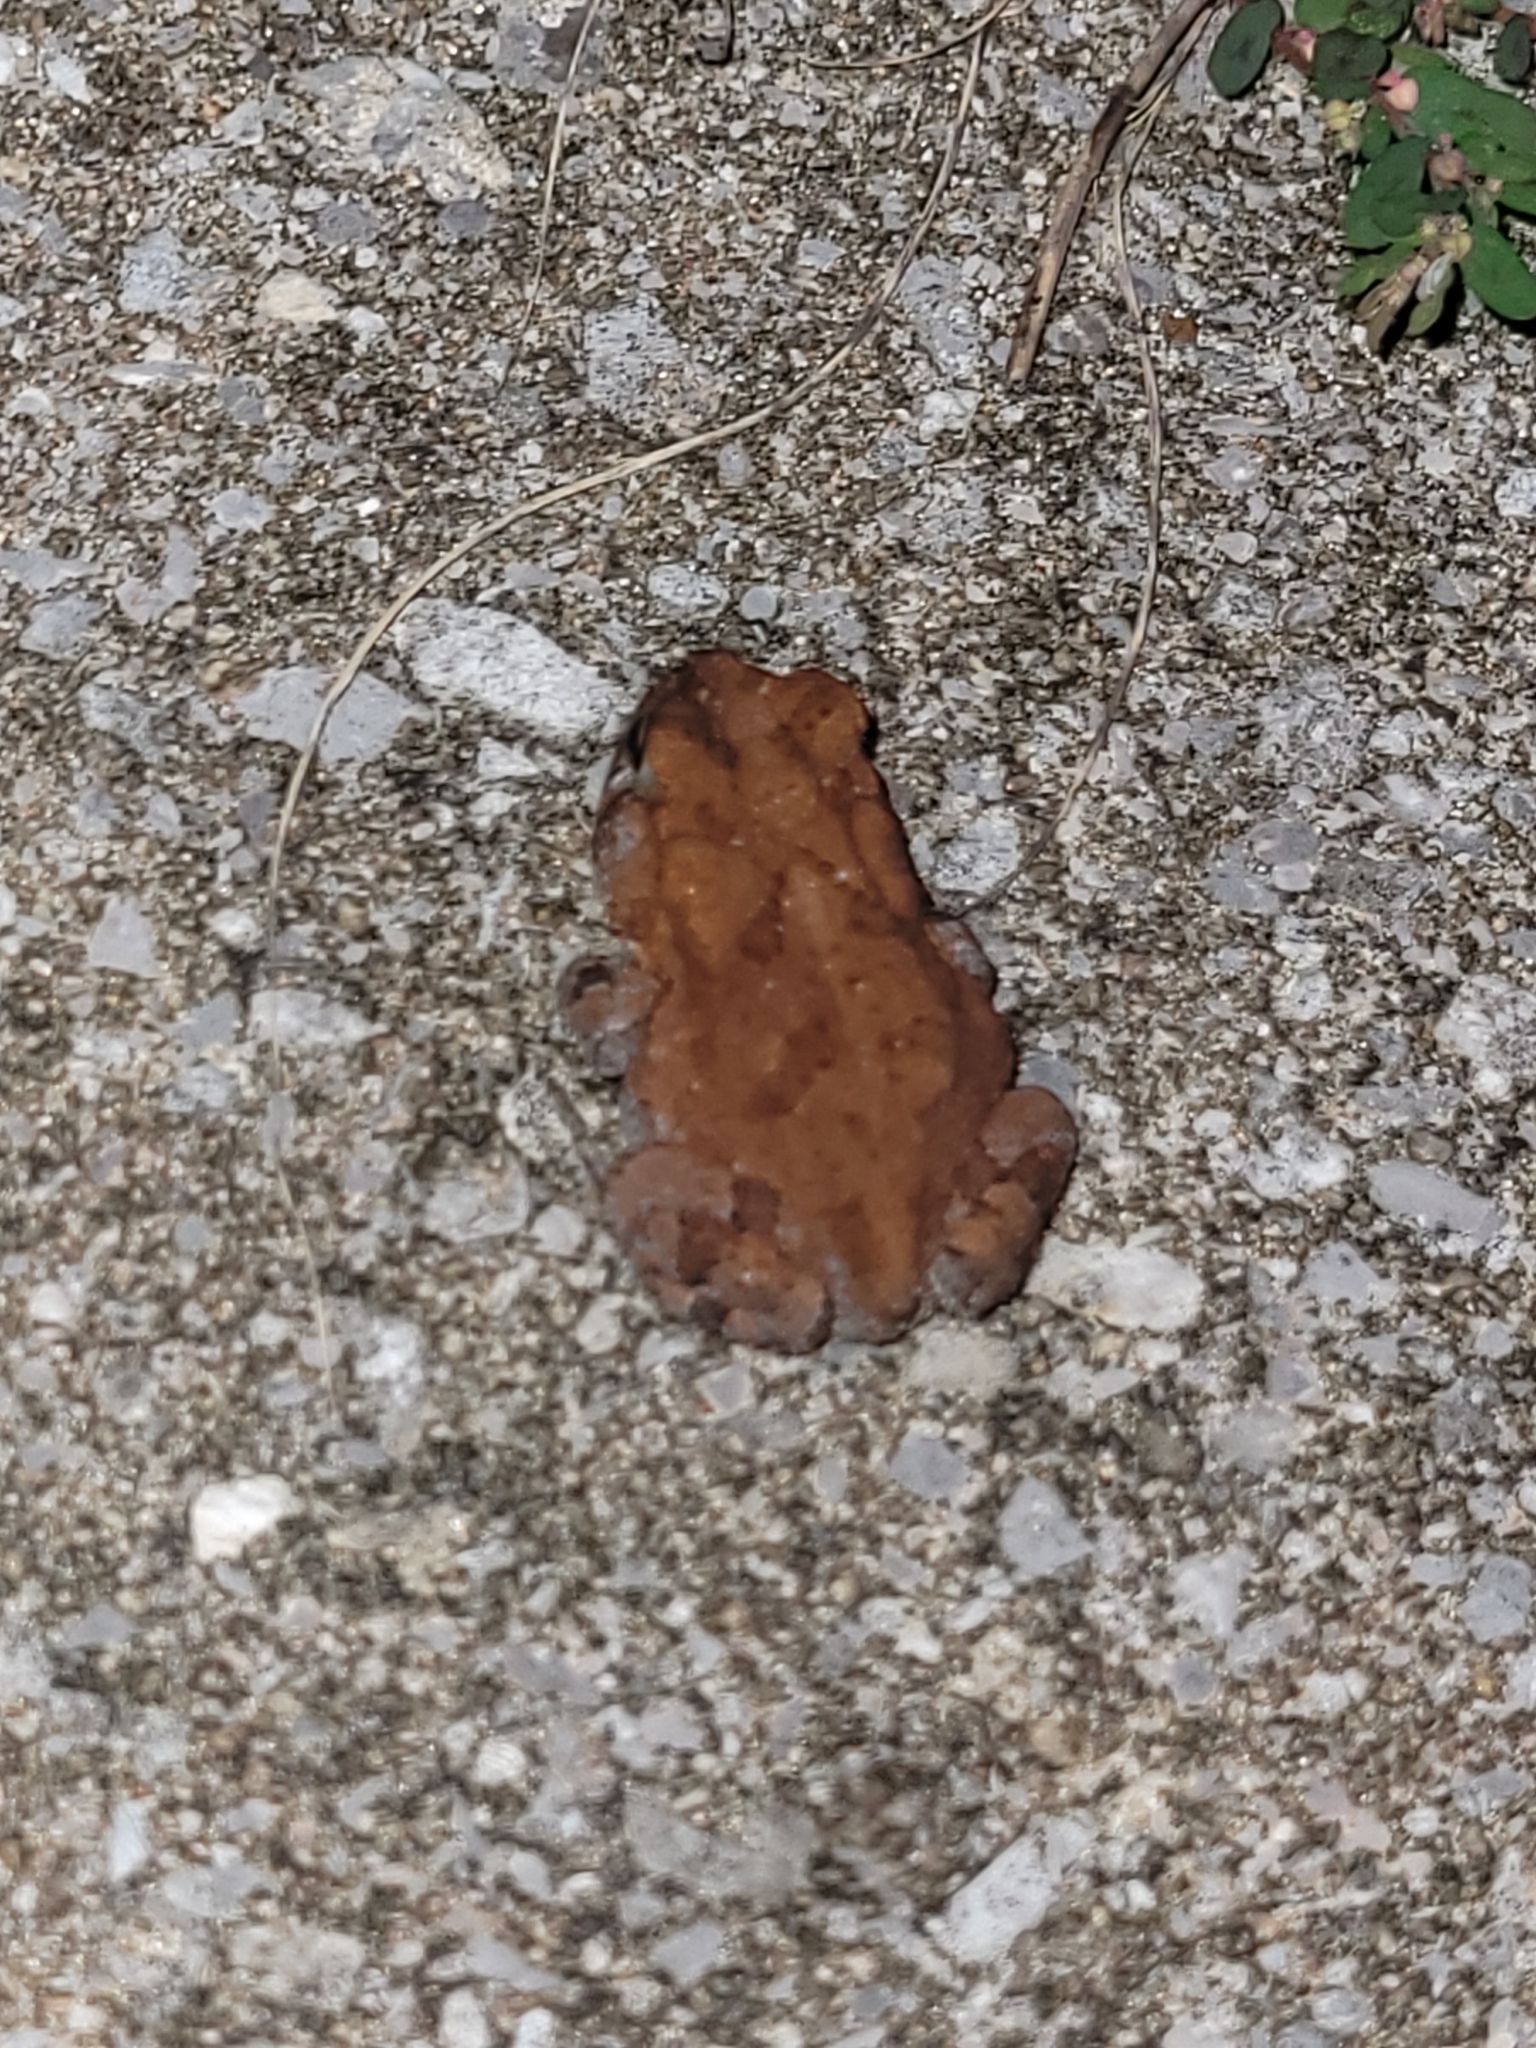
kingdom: Animalia
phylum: Chordata
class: Amphibia
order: Anura
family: Bufonidae
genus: Anaxyrus
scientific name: Anaxyrus terrestris
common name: Southern toad
